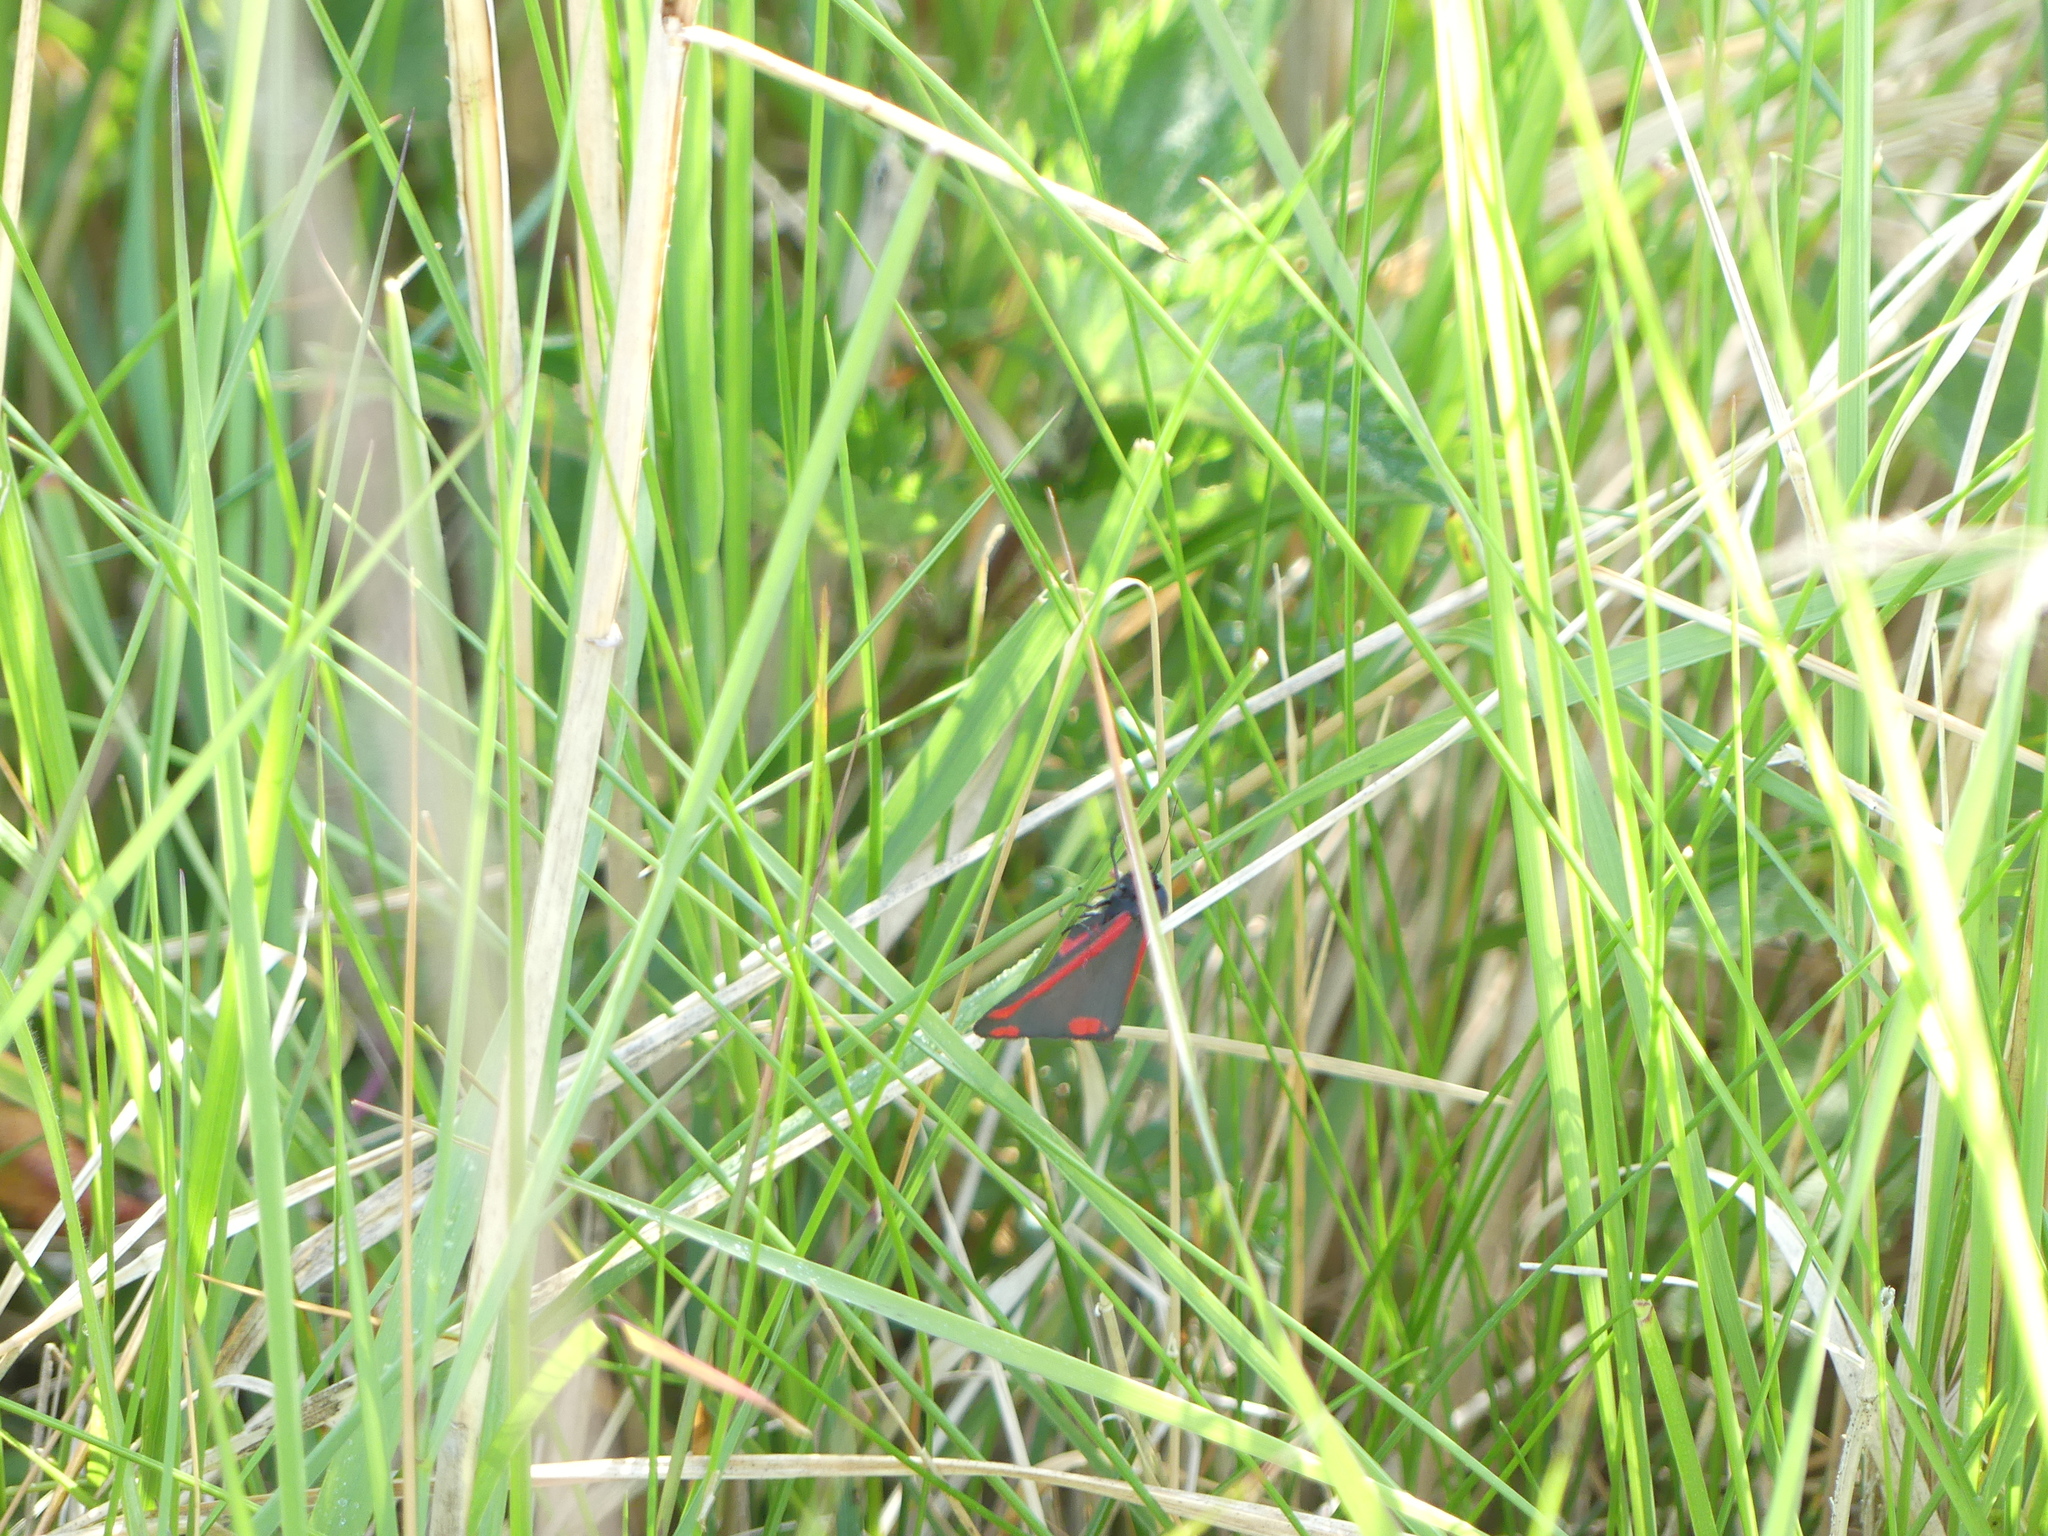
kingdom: Animalia
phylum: Arthropoda
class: Insecta
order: Lepidoptera
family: Erebidae
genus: Tyria
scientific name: Tyria jacobaeae
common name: Cinnabar
